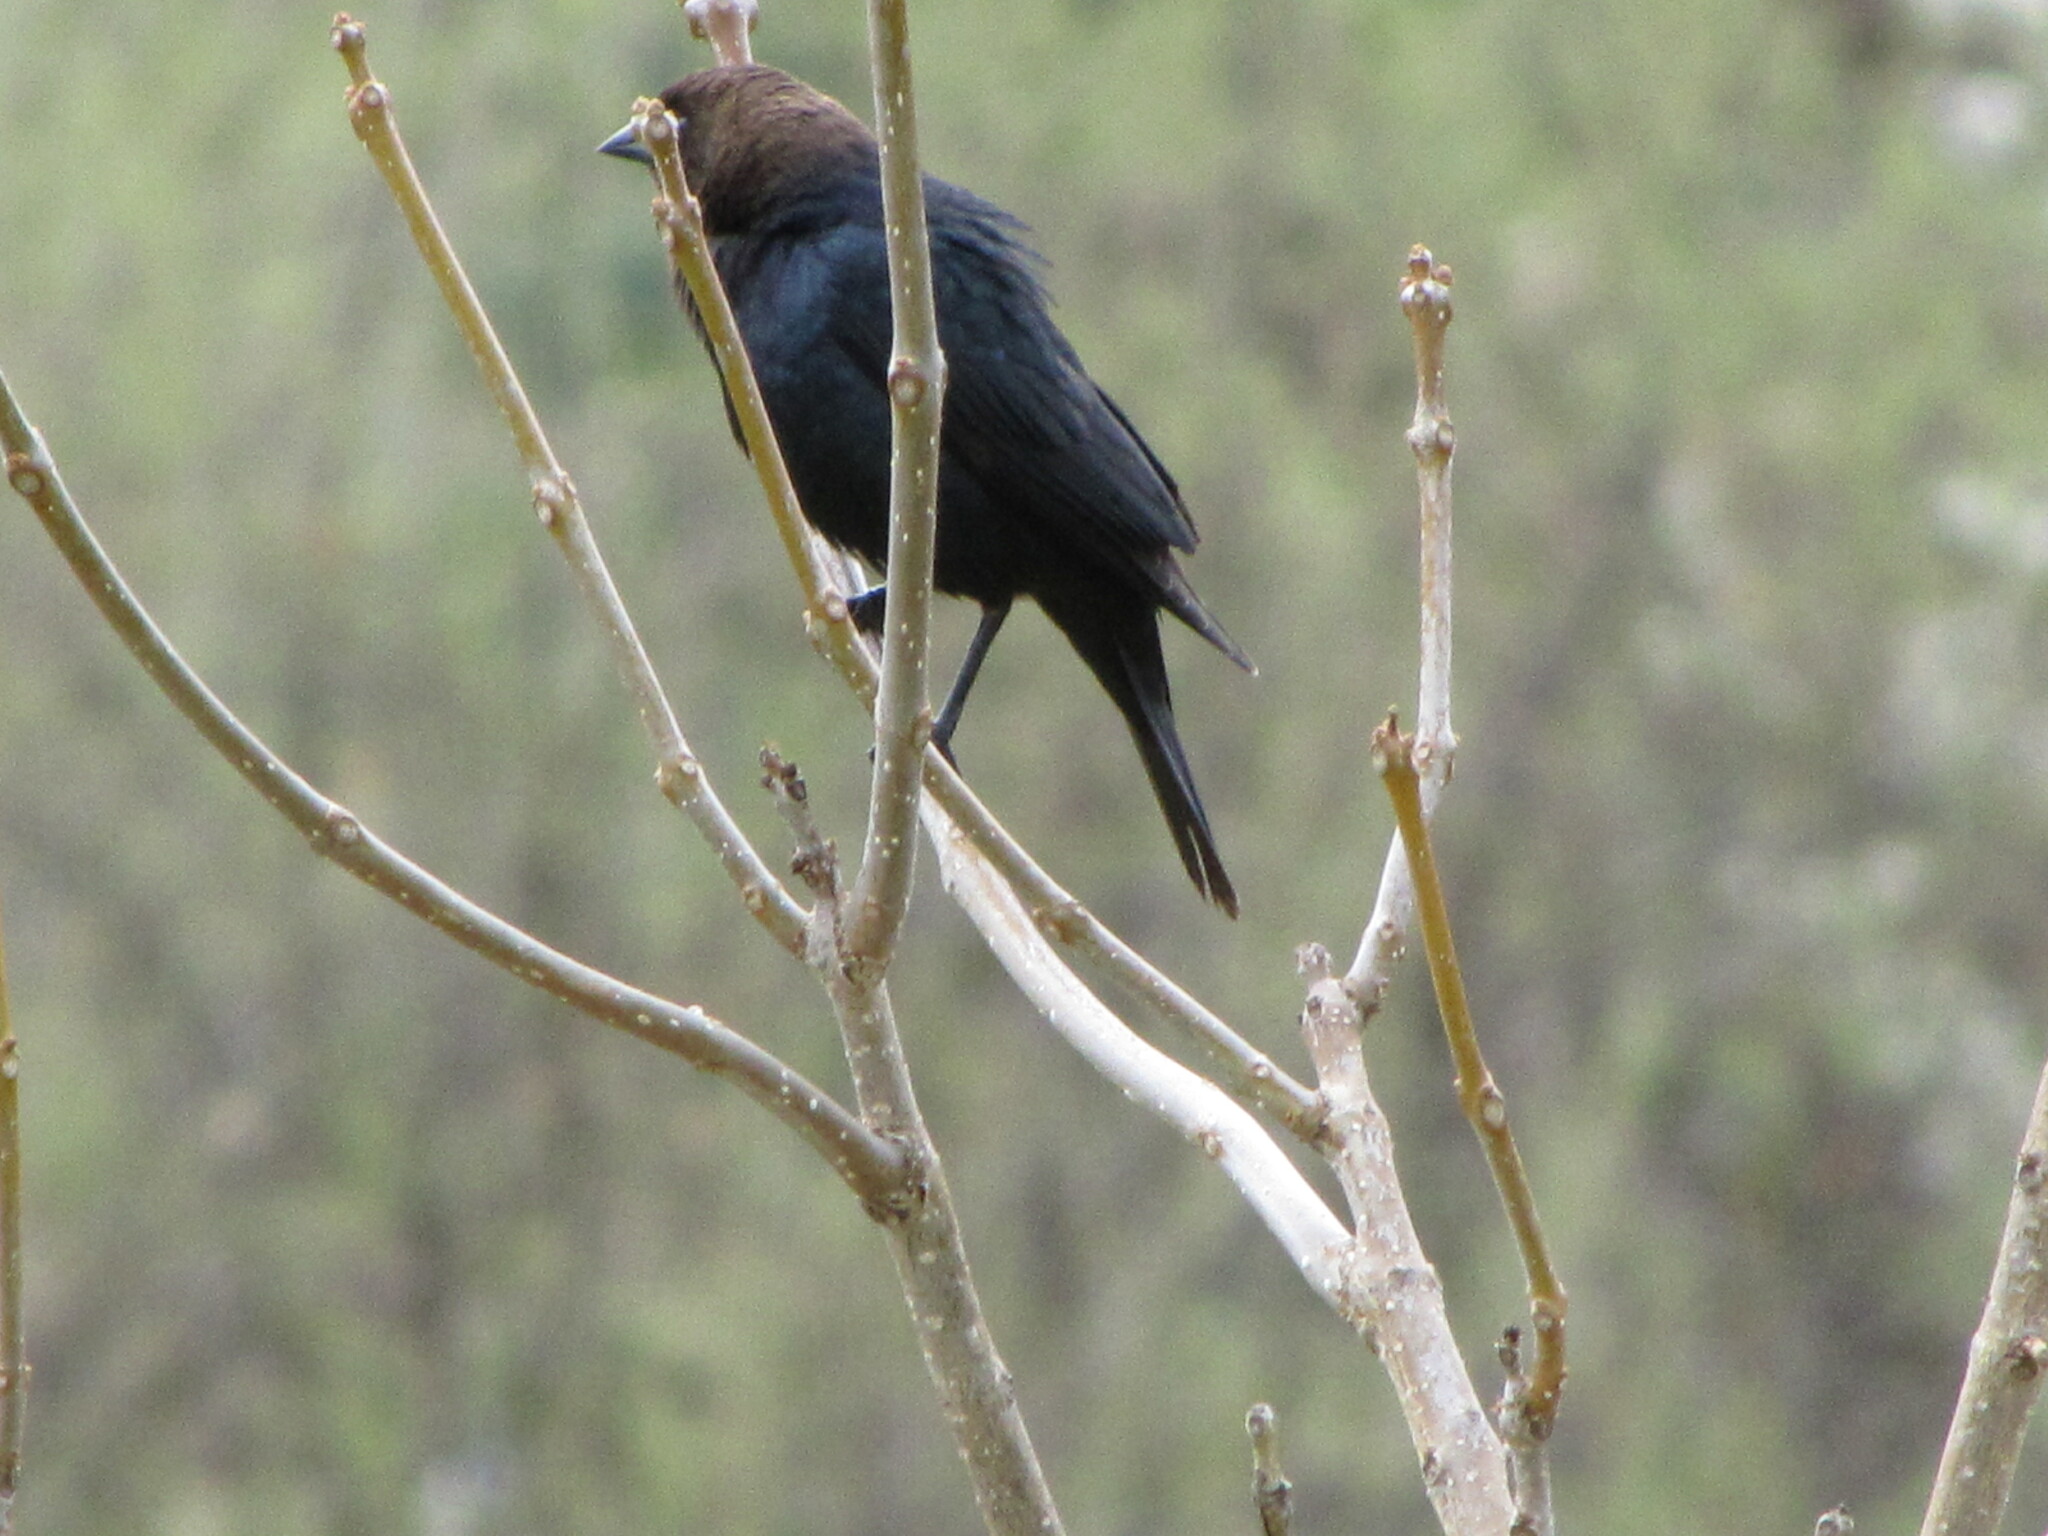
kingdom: Animalia
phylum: Chordata
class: Aves
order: Passeriformes
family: Icteridae
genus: Molothrus
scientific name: Molothrus ater
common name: Brown-headed cowbird
